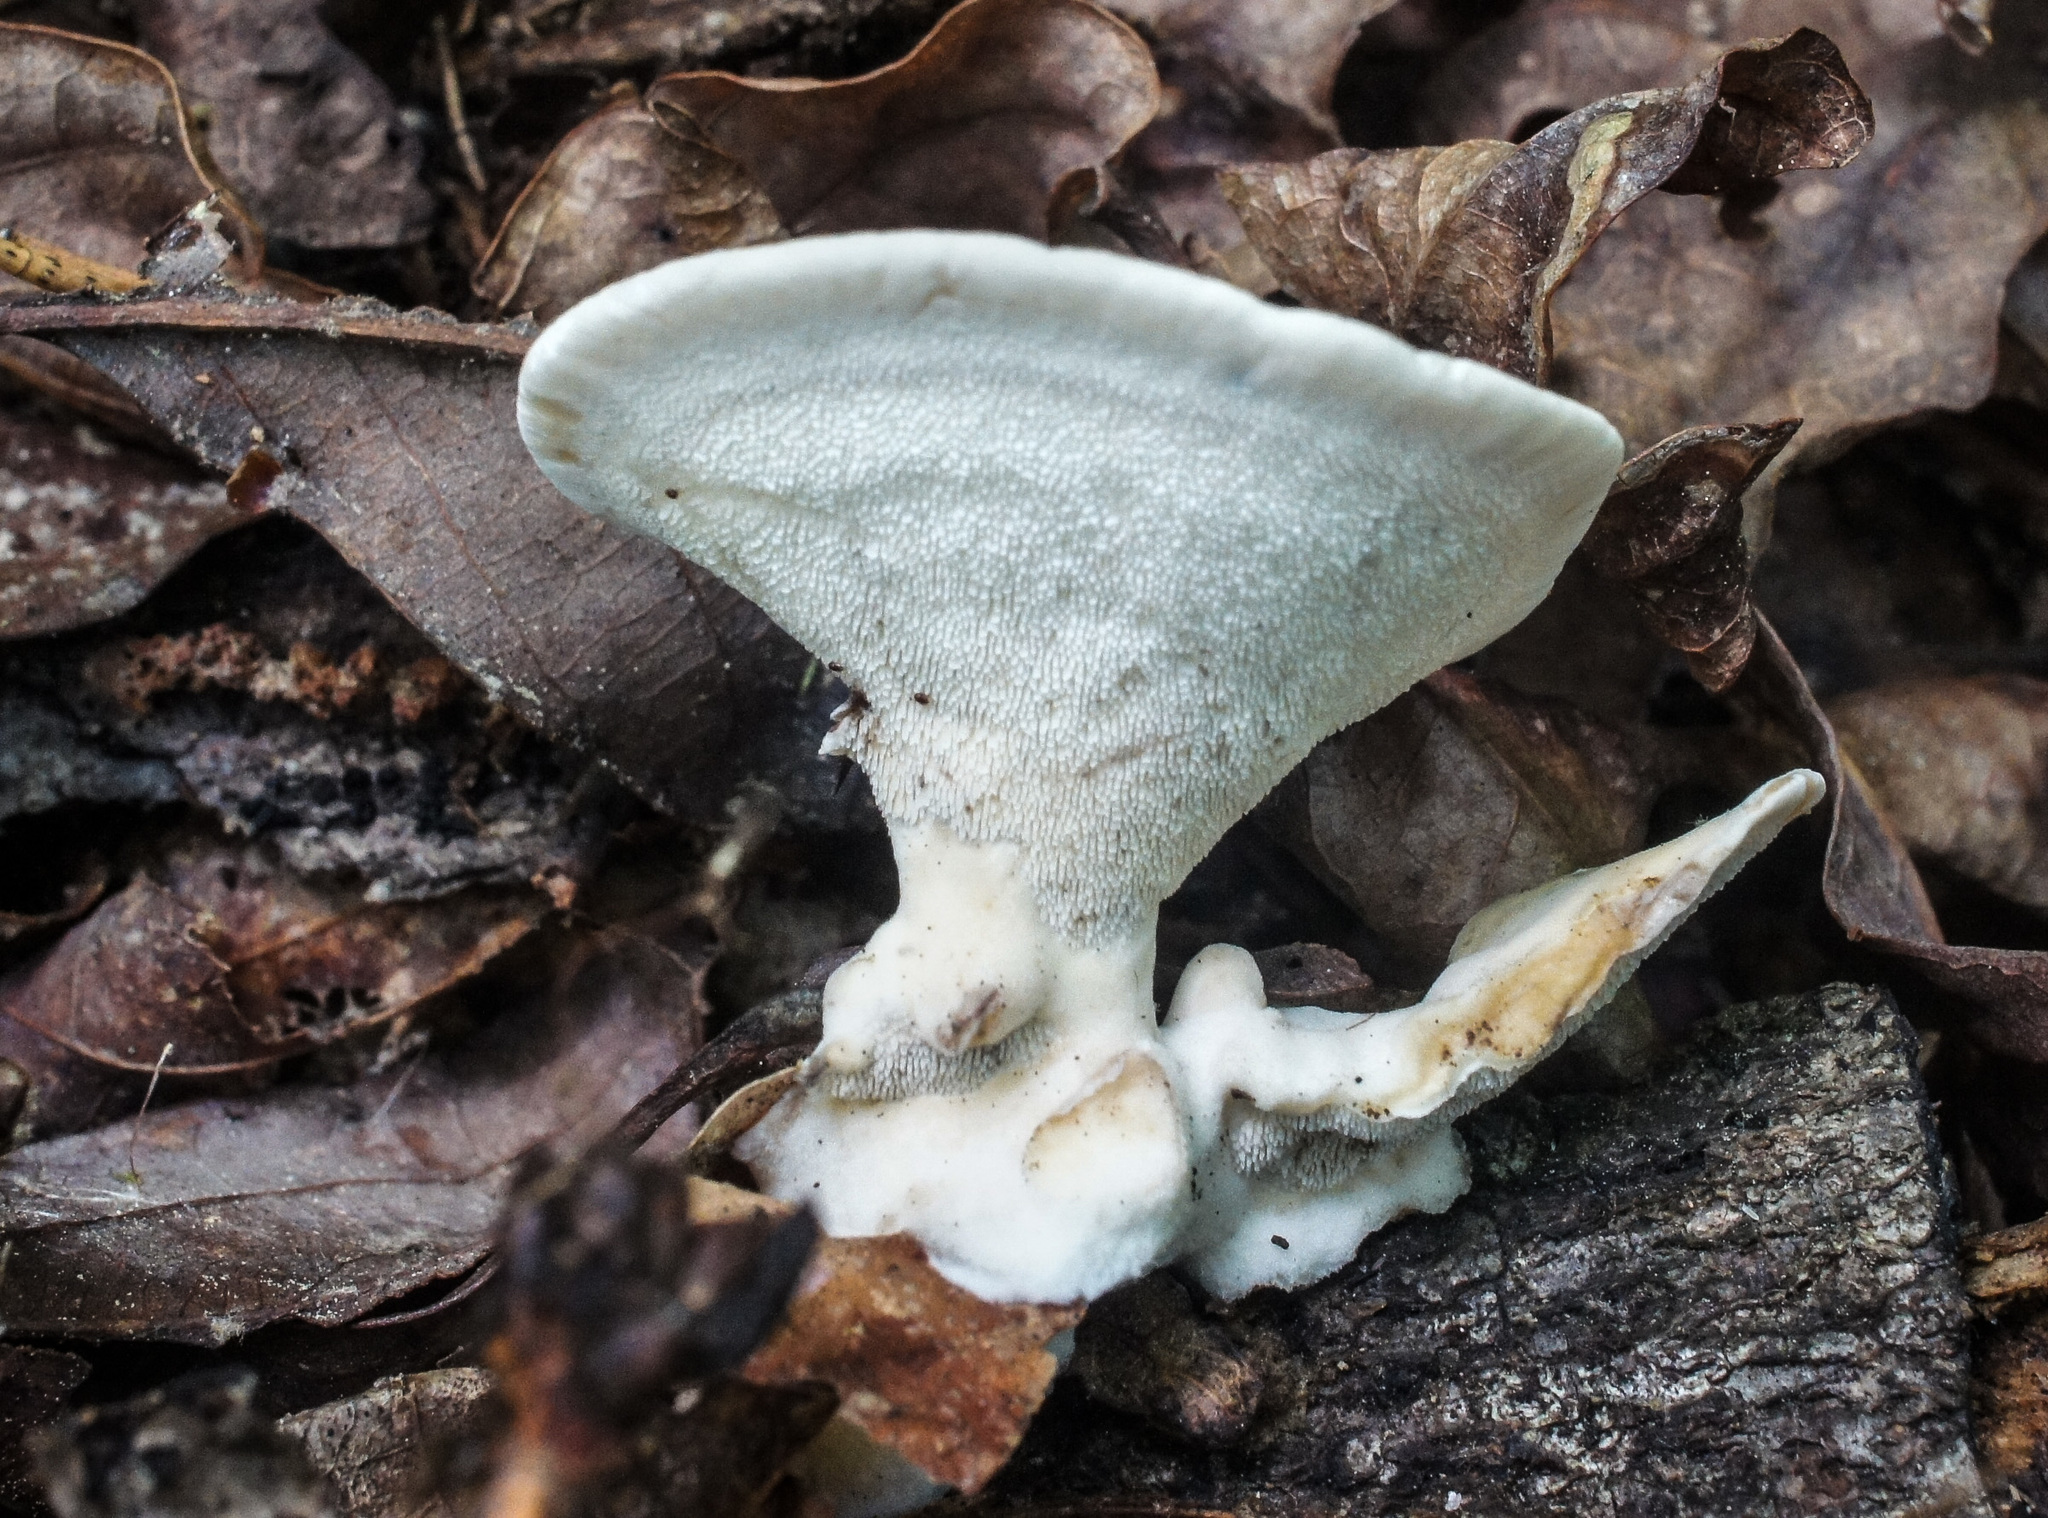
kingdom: Fungi
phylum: Basidiomycota
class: Agaricomycetes
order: Polyporales
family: Steccherinaceae
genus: Mycorrhaphium
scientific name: Mycorrhaphium adustum
